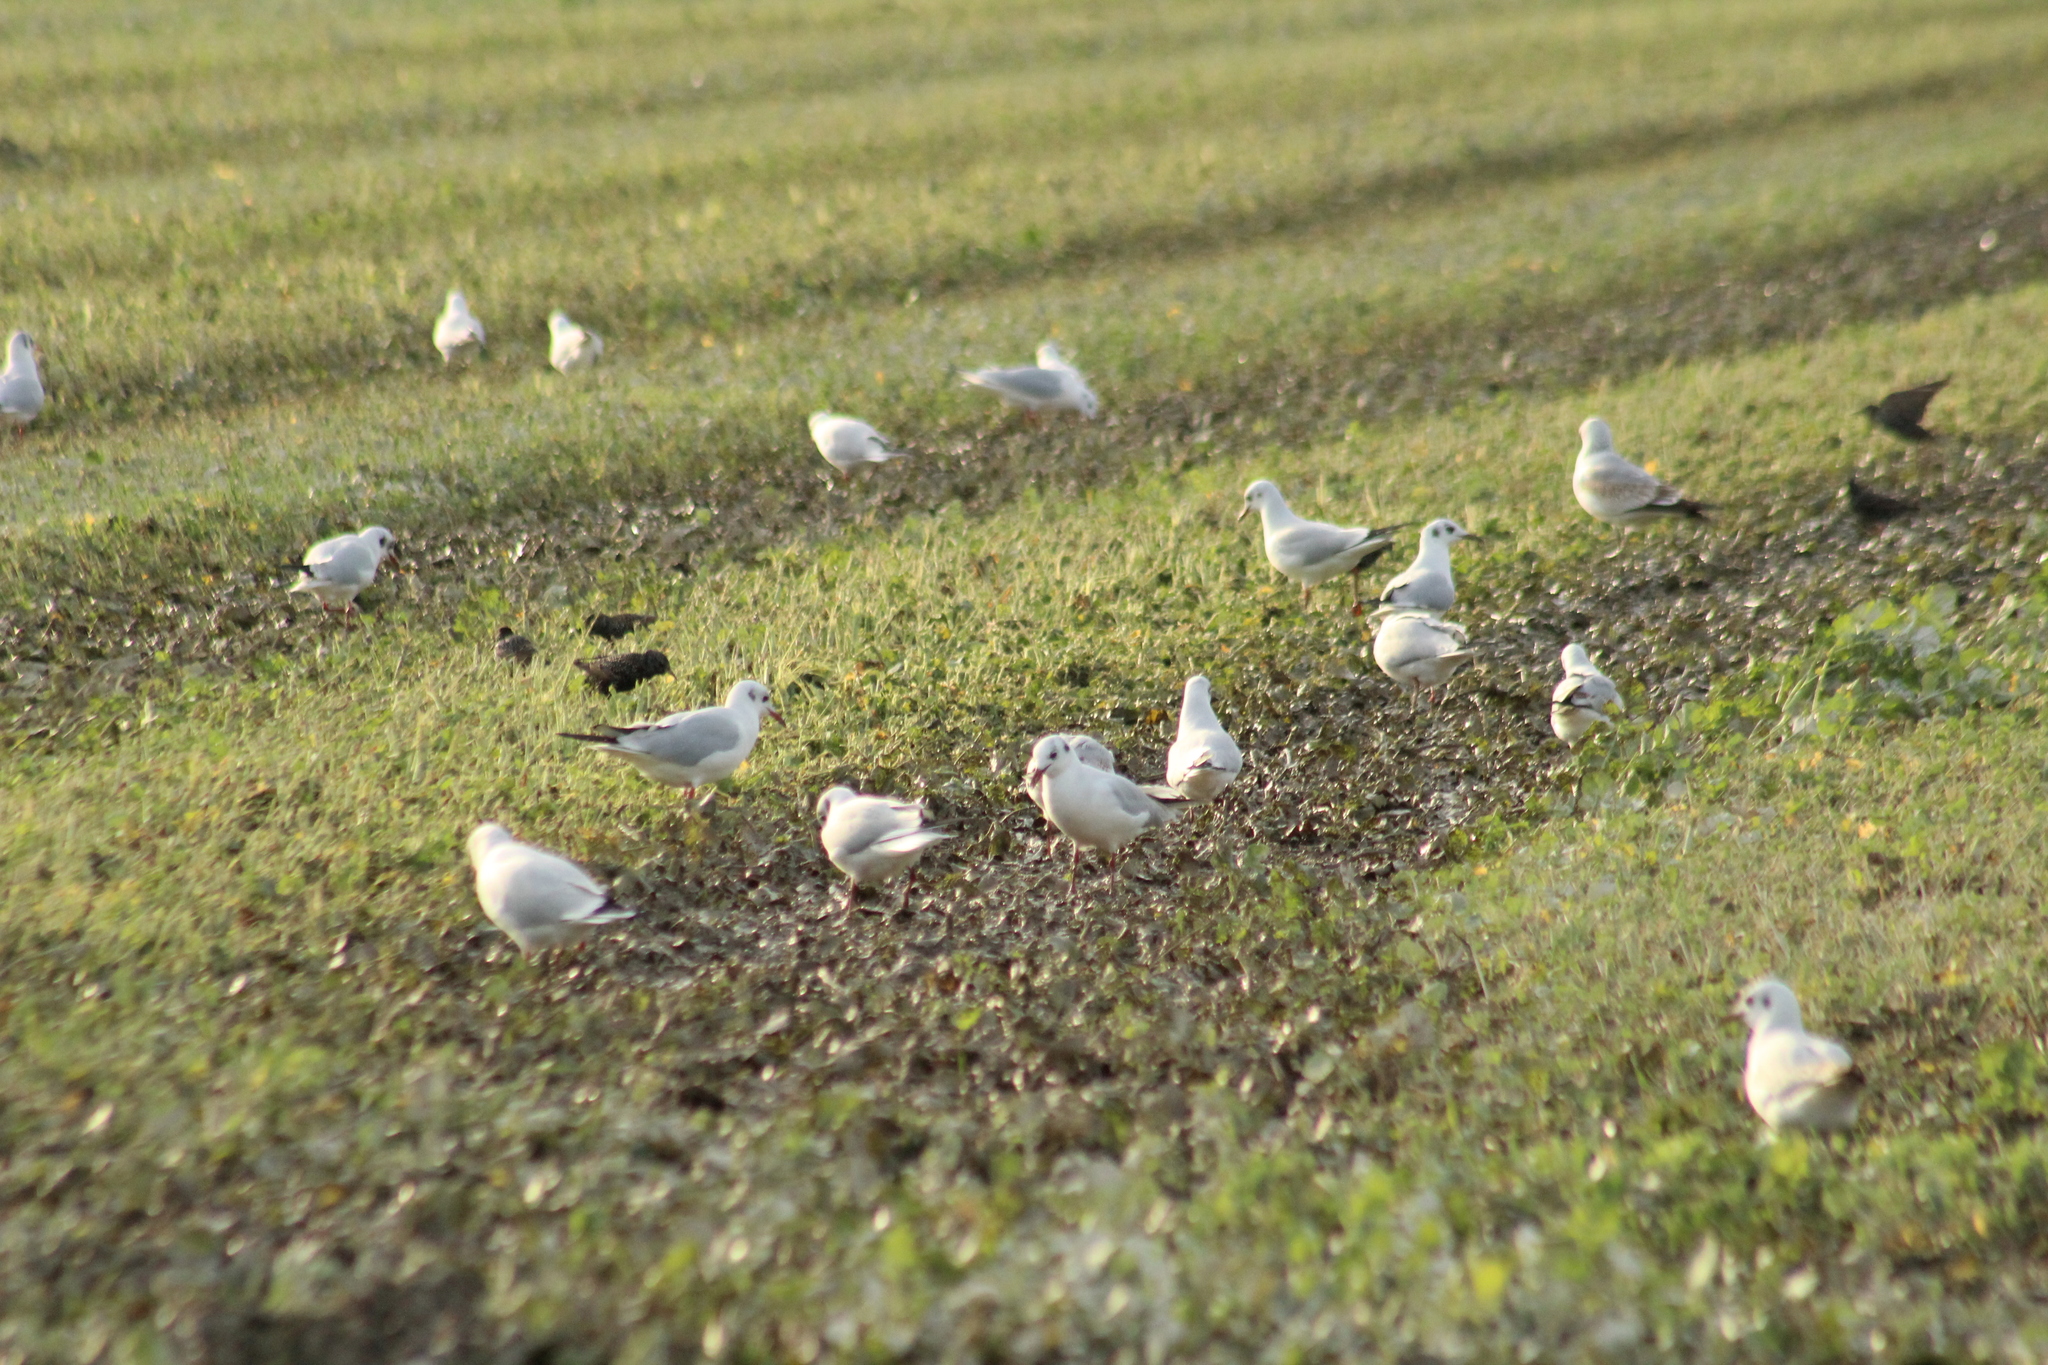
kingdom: Animalia
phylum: Chordata
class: Aves
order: Charadriiformes
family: Laridae
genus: Chroicocephalus
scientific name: Chroicocephalus ridibundus
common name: Black-headed gull
